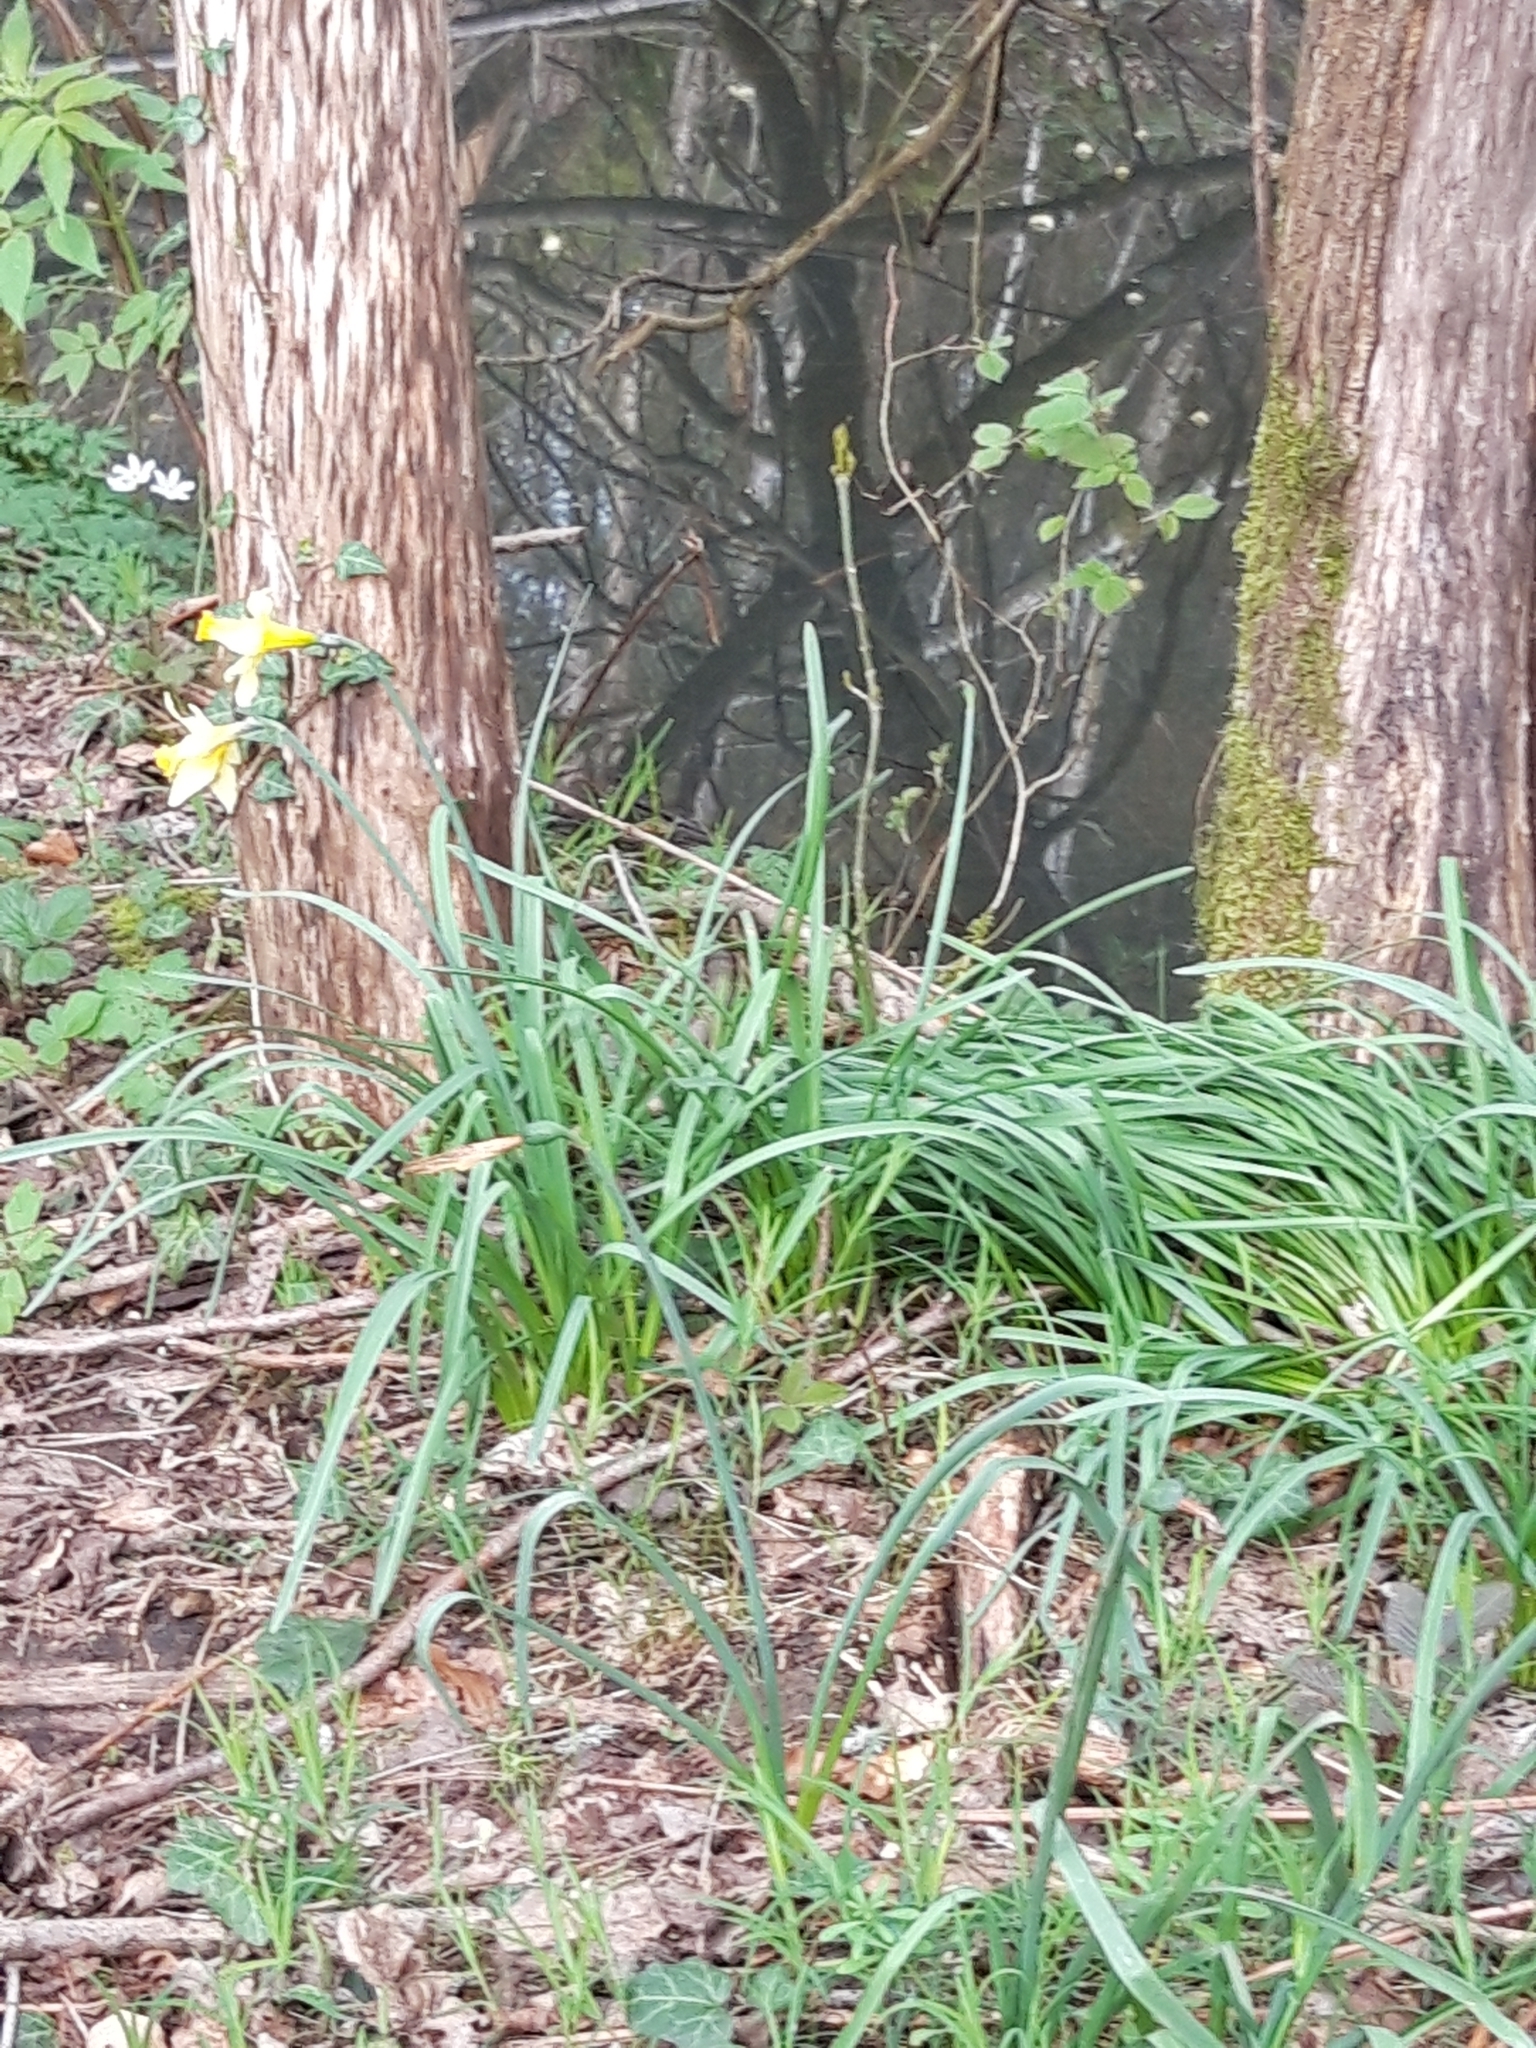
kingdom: Plantae
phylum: Tracheophyta
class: Liliopsida
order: Asparagales
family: Amaryllidaceae
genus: Narcissus
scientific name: Narcissus pseudonarcissus
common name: Daffodil
